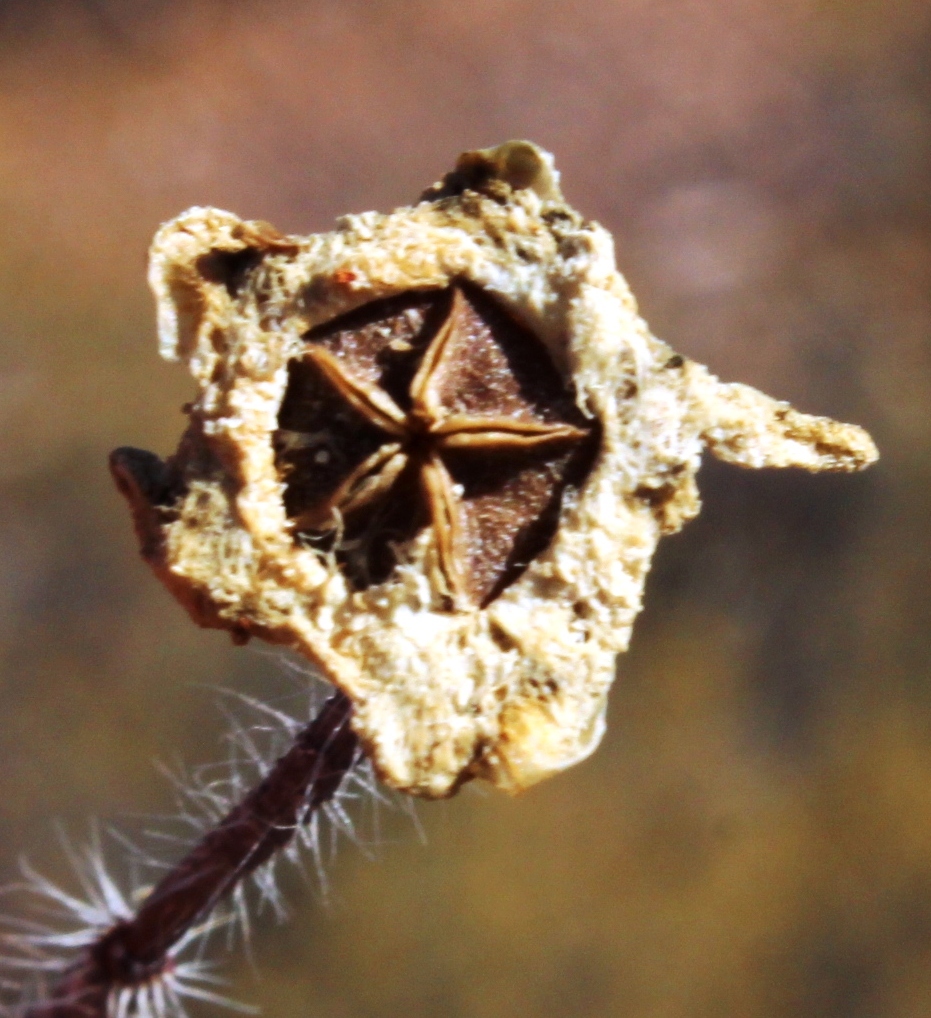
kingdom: Plantae
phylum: Tracheophyta
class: Magnoliopsida
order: Caryophyllales
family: Aizoaceae
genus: Drosanthemum
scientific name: Drosanthemum calycinum
